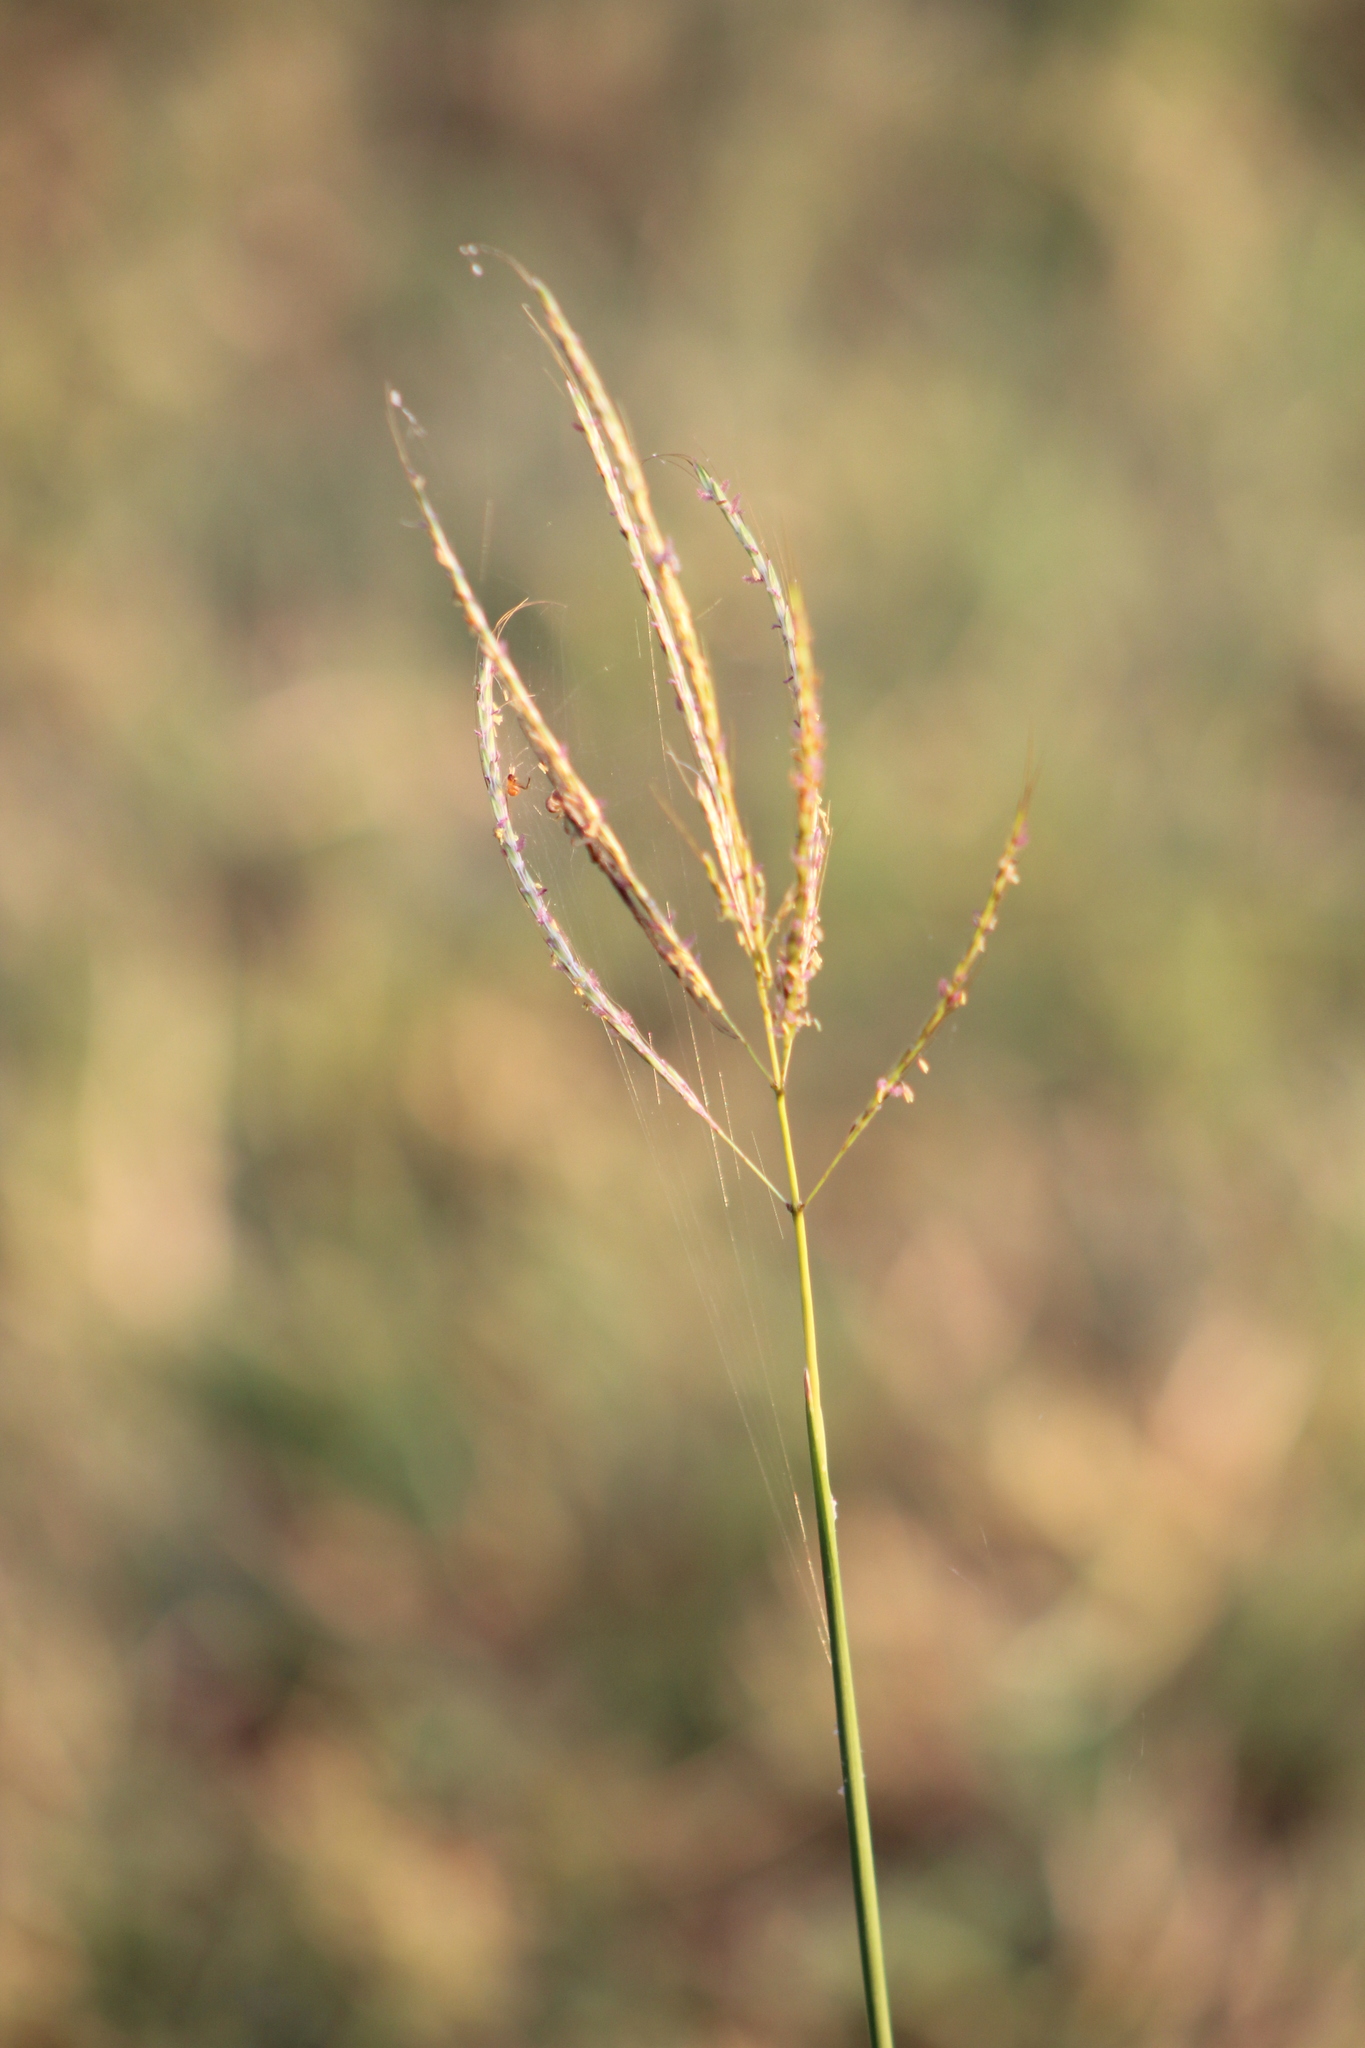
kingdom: Plantae
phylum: Tracheophyta
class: Liliopsida
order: Poales
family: Poaceae
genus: Bothriochloa
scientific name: Bothriochloa ischaemum
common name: Yellow bluestem
